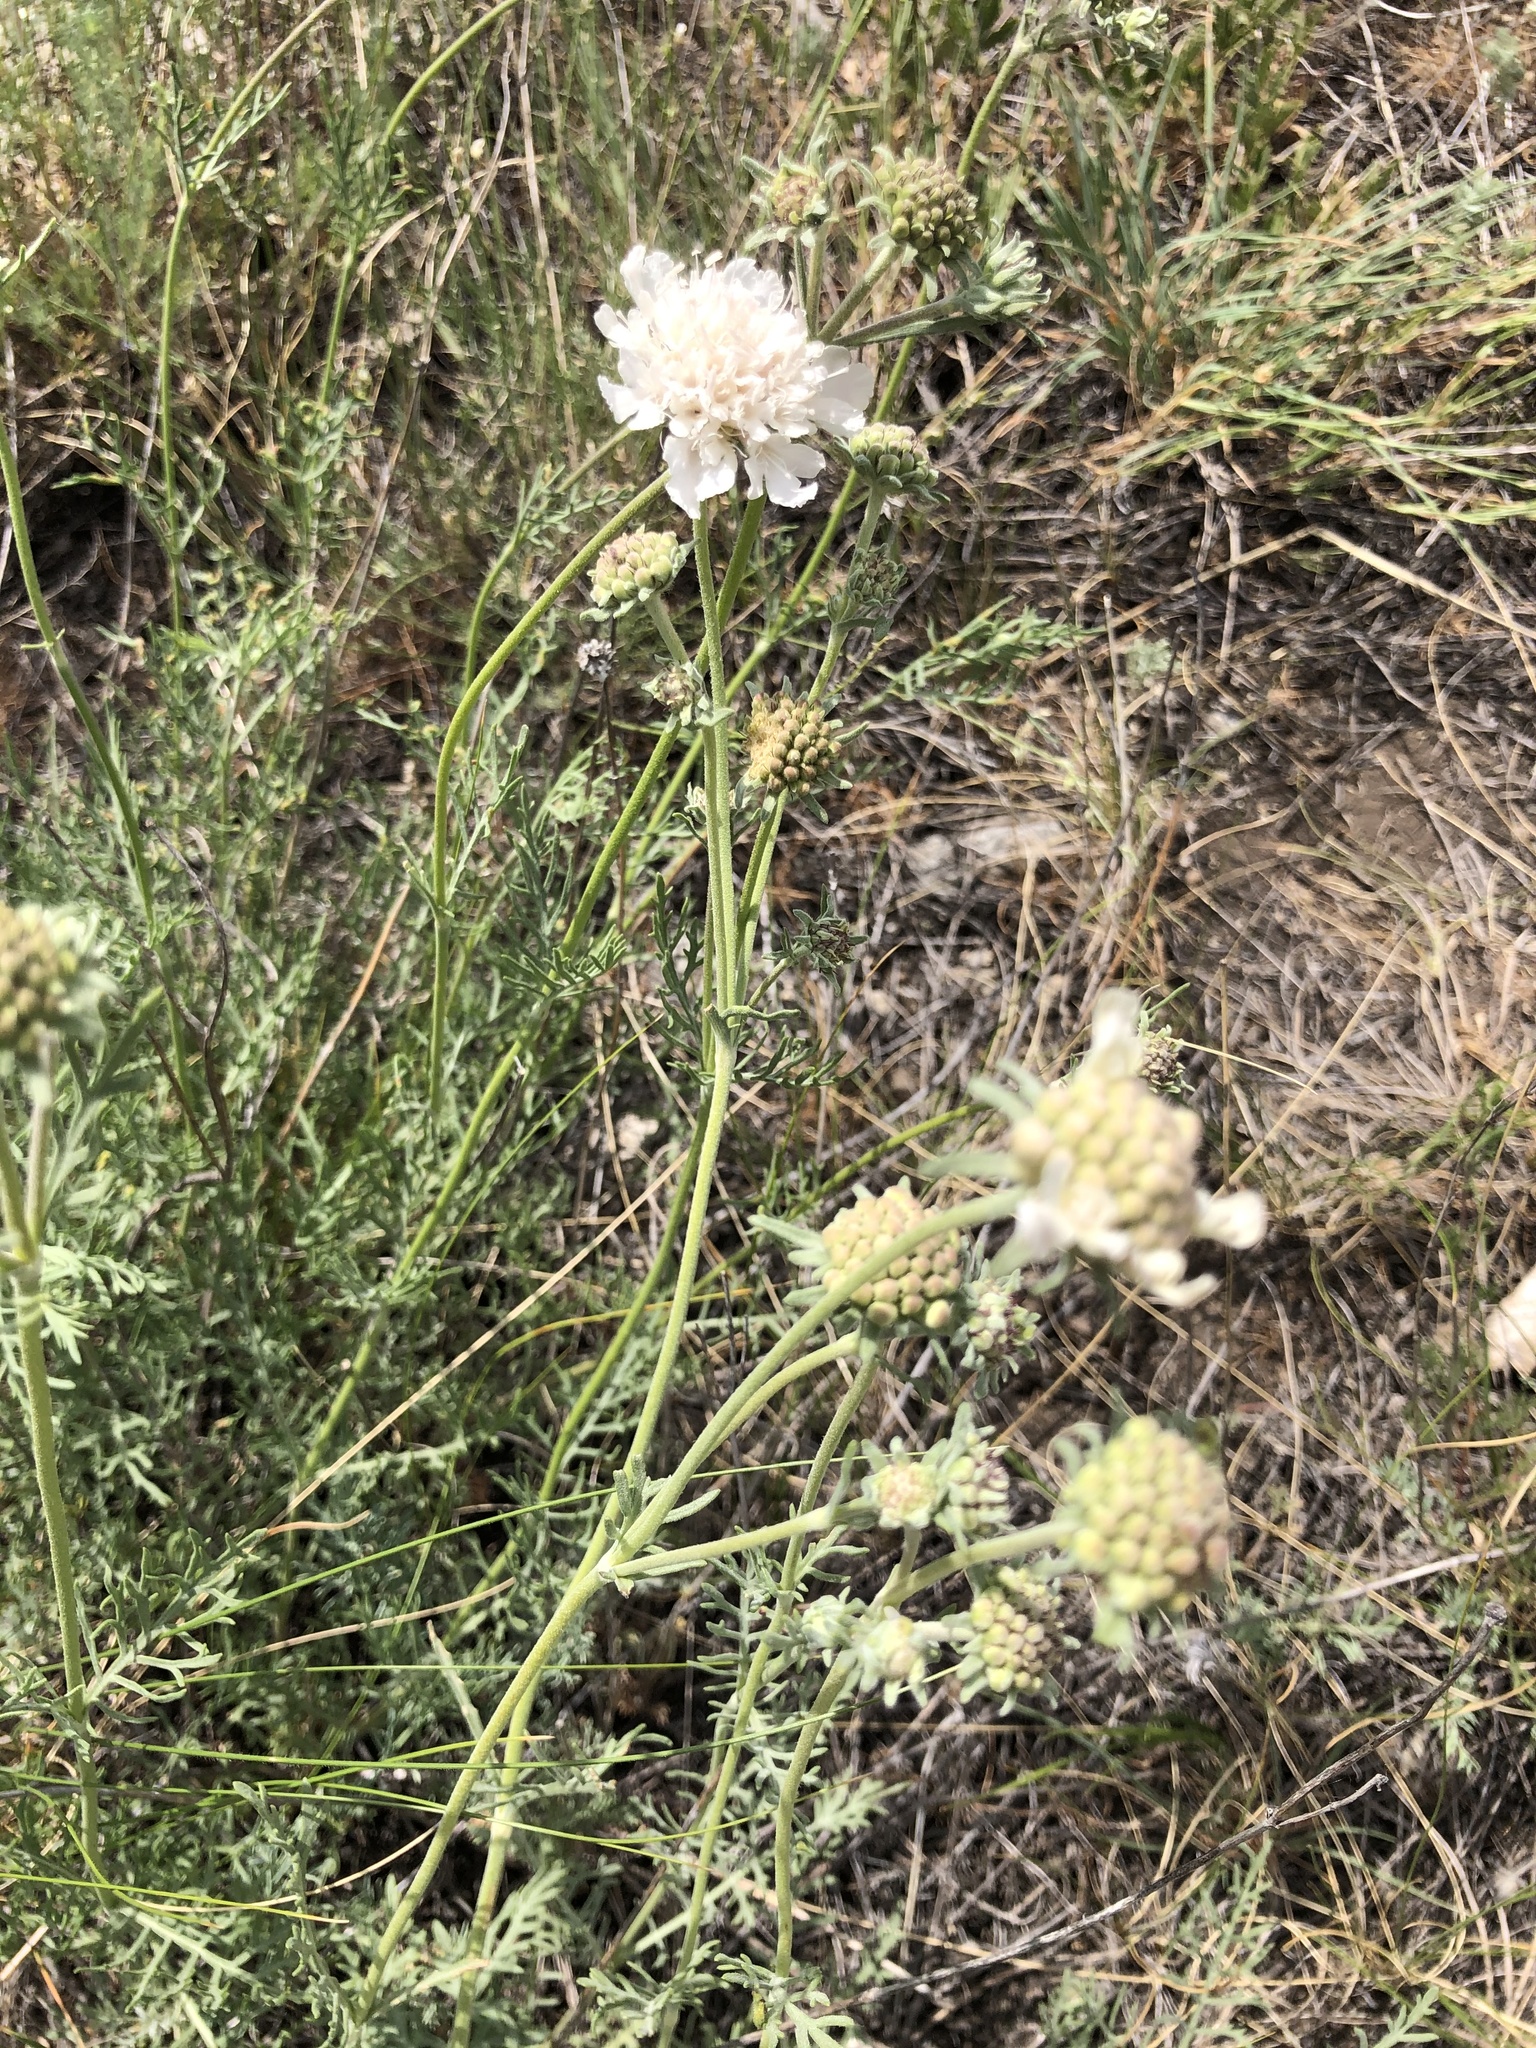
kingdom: Plantae
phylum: Tracheophyta
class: Magnoliopsida
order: Dipsacales
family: Caprifoliaceae
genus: Lomelosia
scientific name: Lomelosia isetensis
